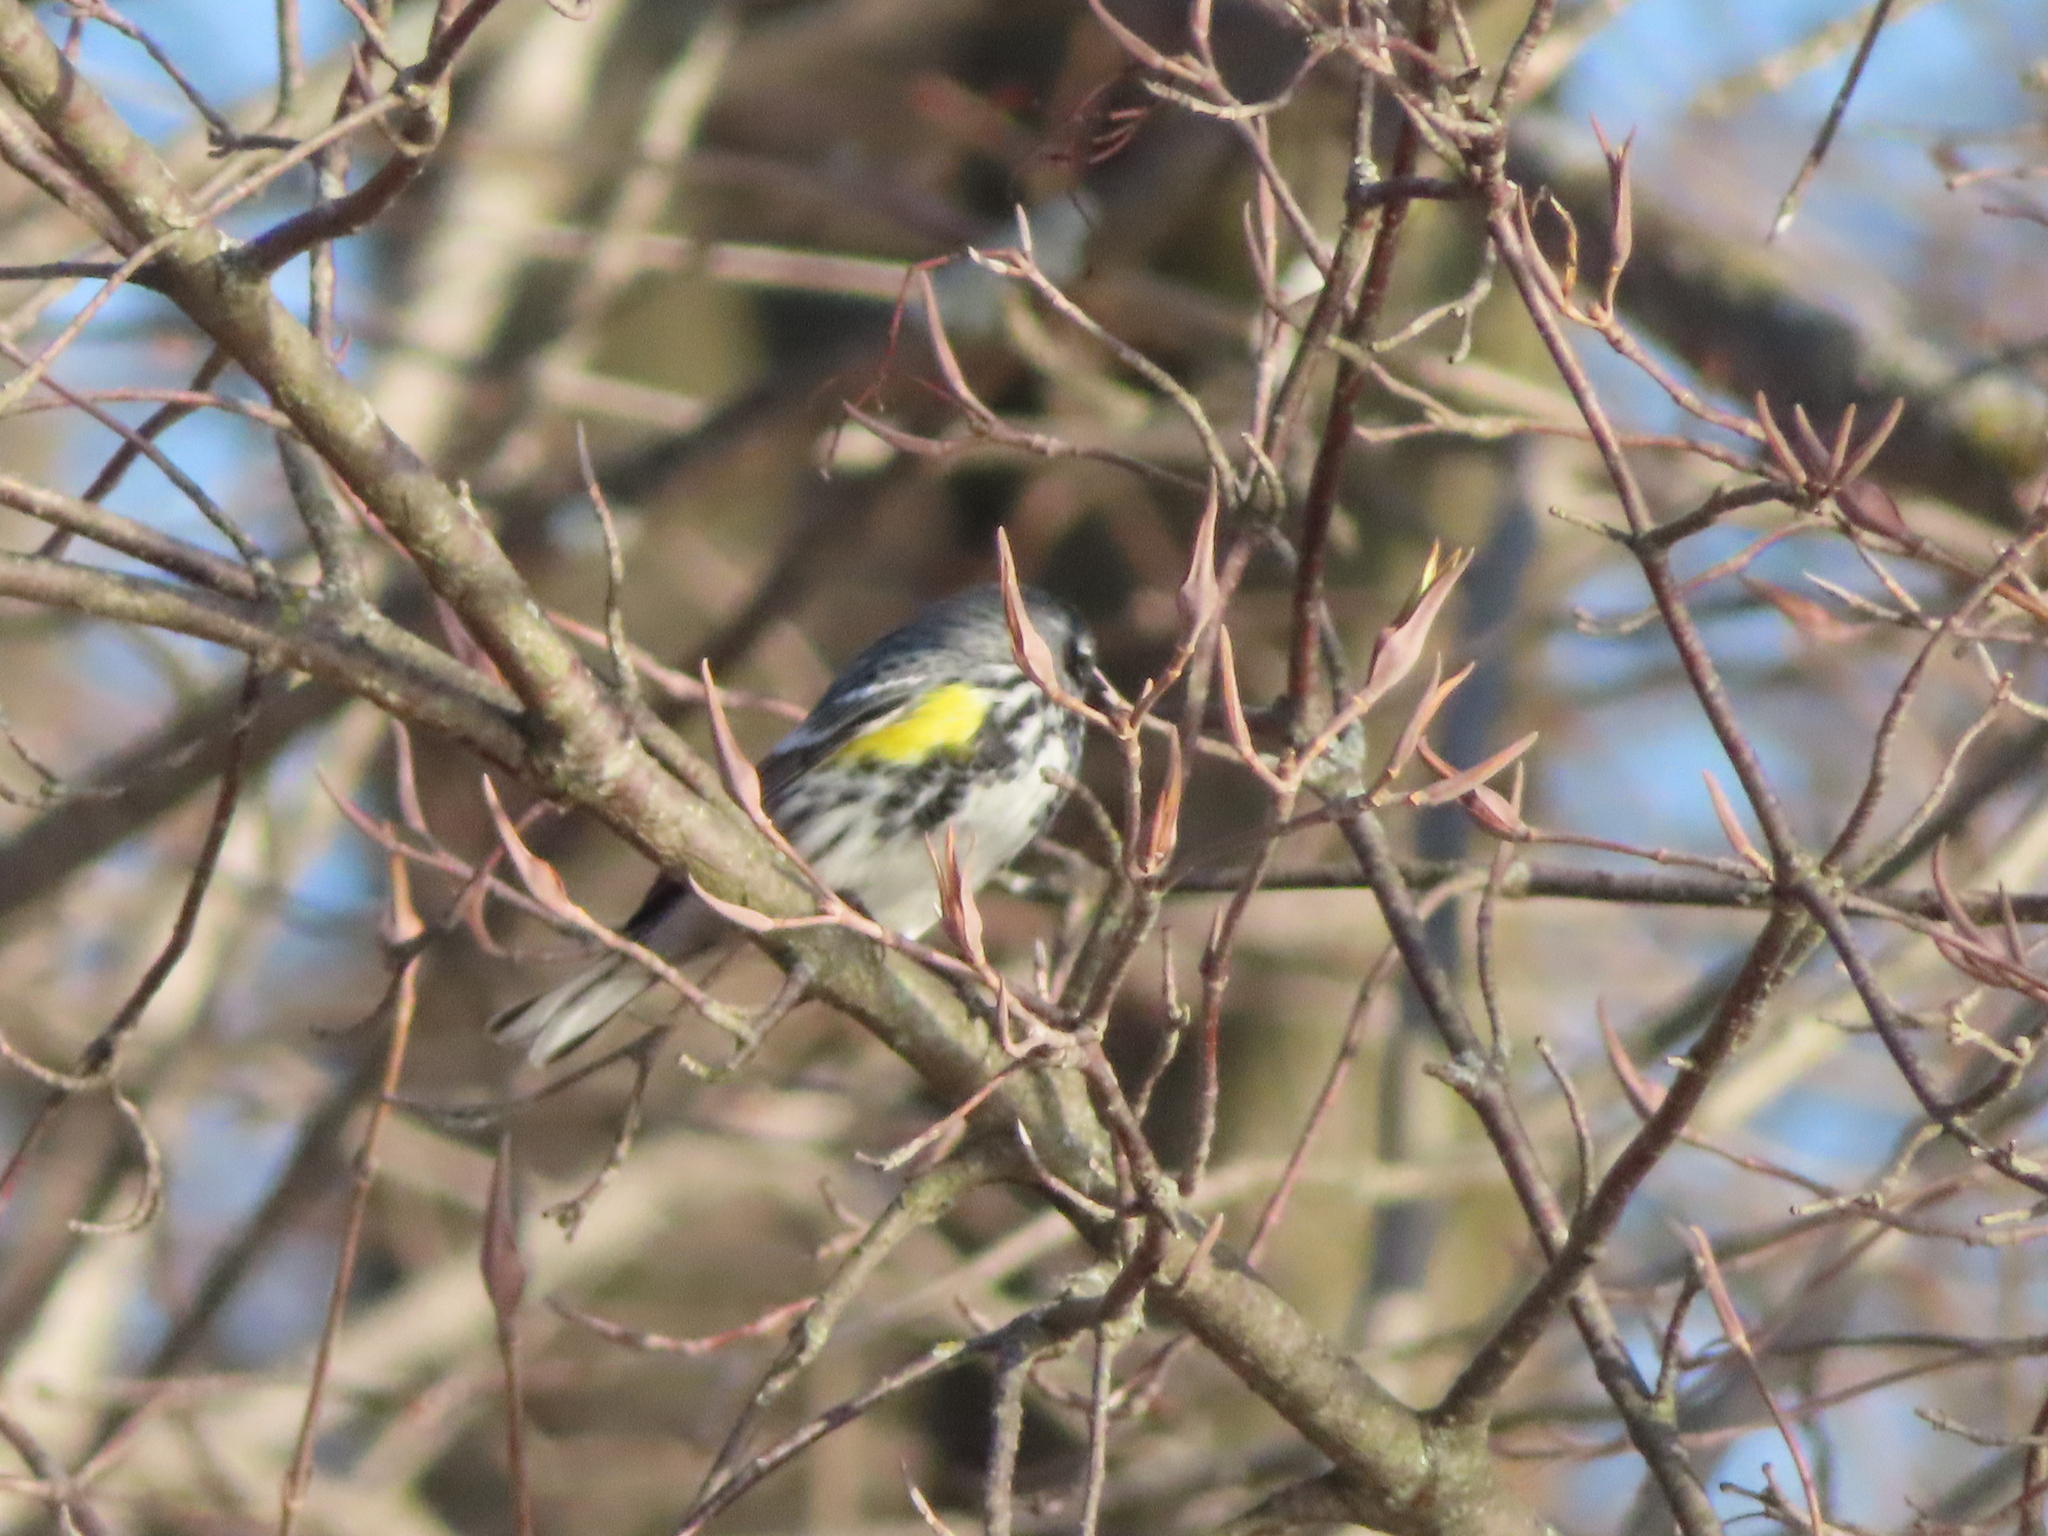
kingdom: Animalia
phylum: Chordata
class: Aves
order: Passeriformes
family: Parulidae
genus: Setophaga
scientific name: Setophaga coronata
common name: Myrtle warbler
